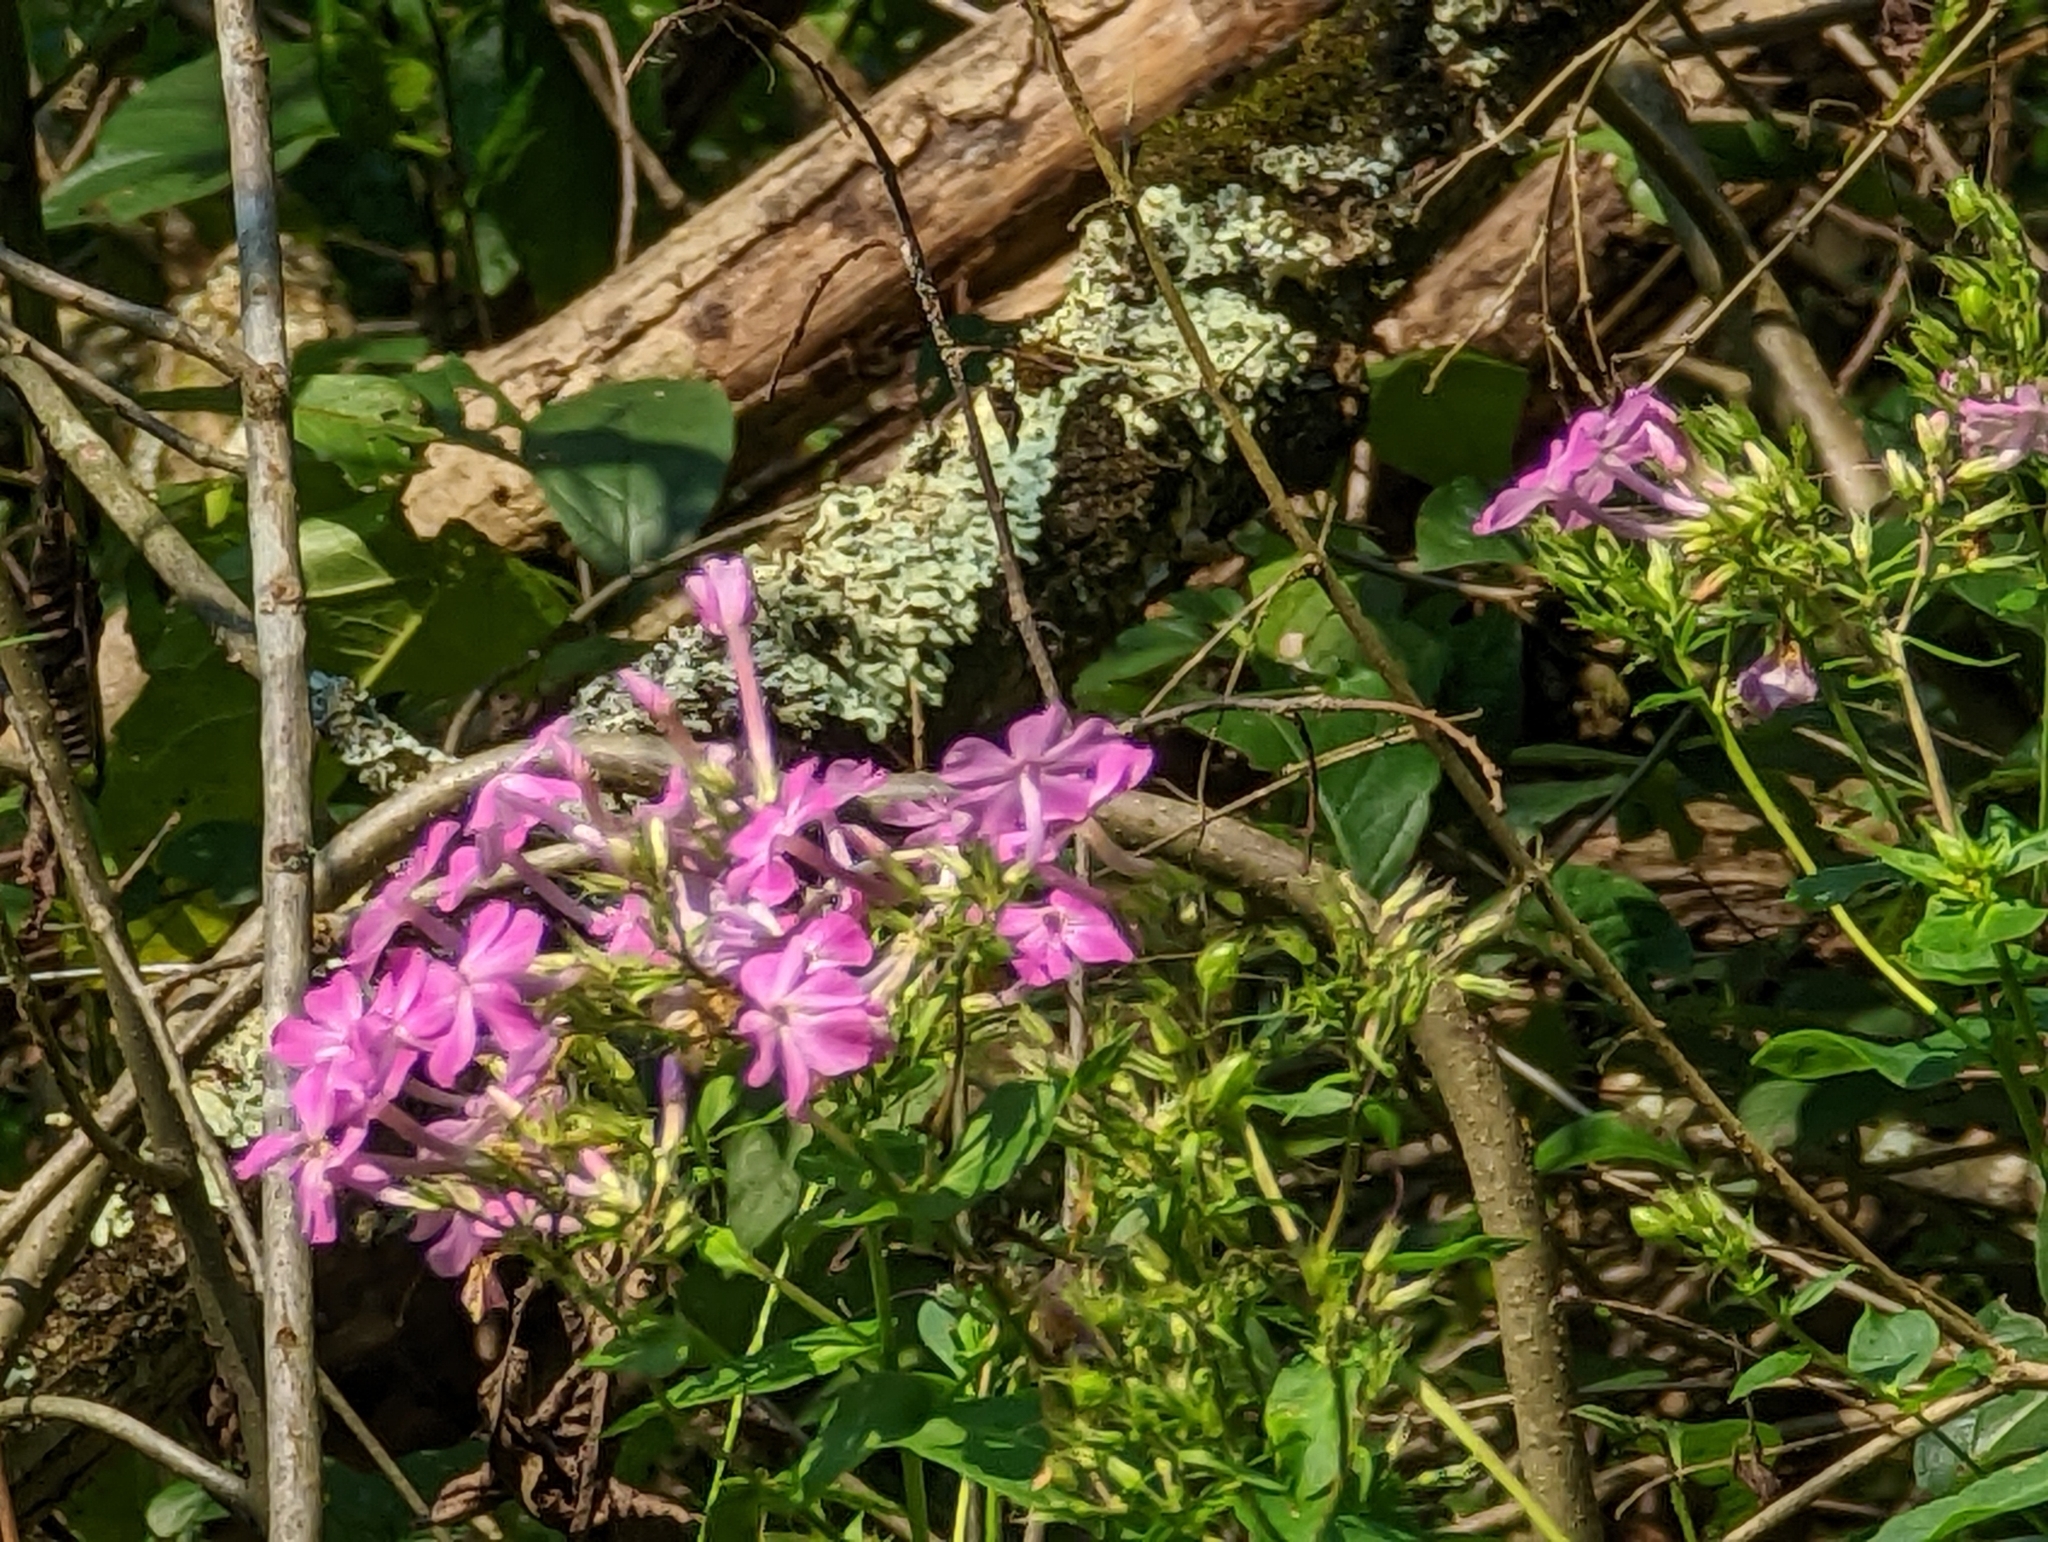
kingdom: Plantae
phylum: Tracheophyta
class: Magnoliopsida
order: Ericales
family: Polemoniaceae
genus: Phlox
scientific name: Phlox paniculata
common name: Fall phlox
